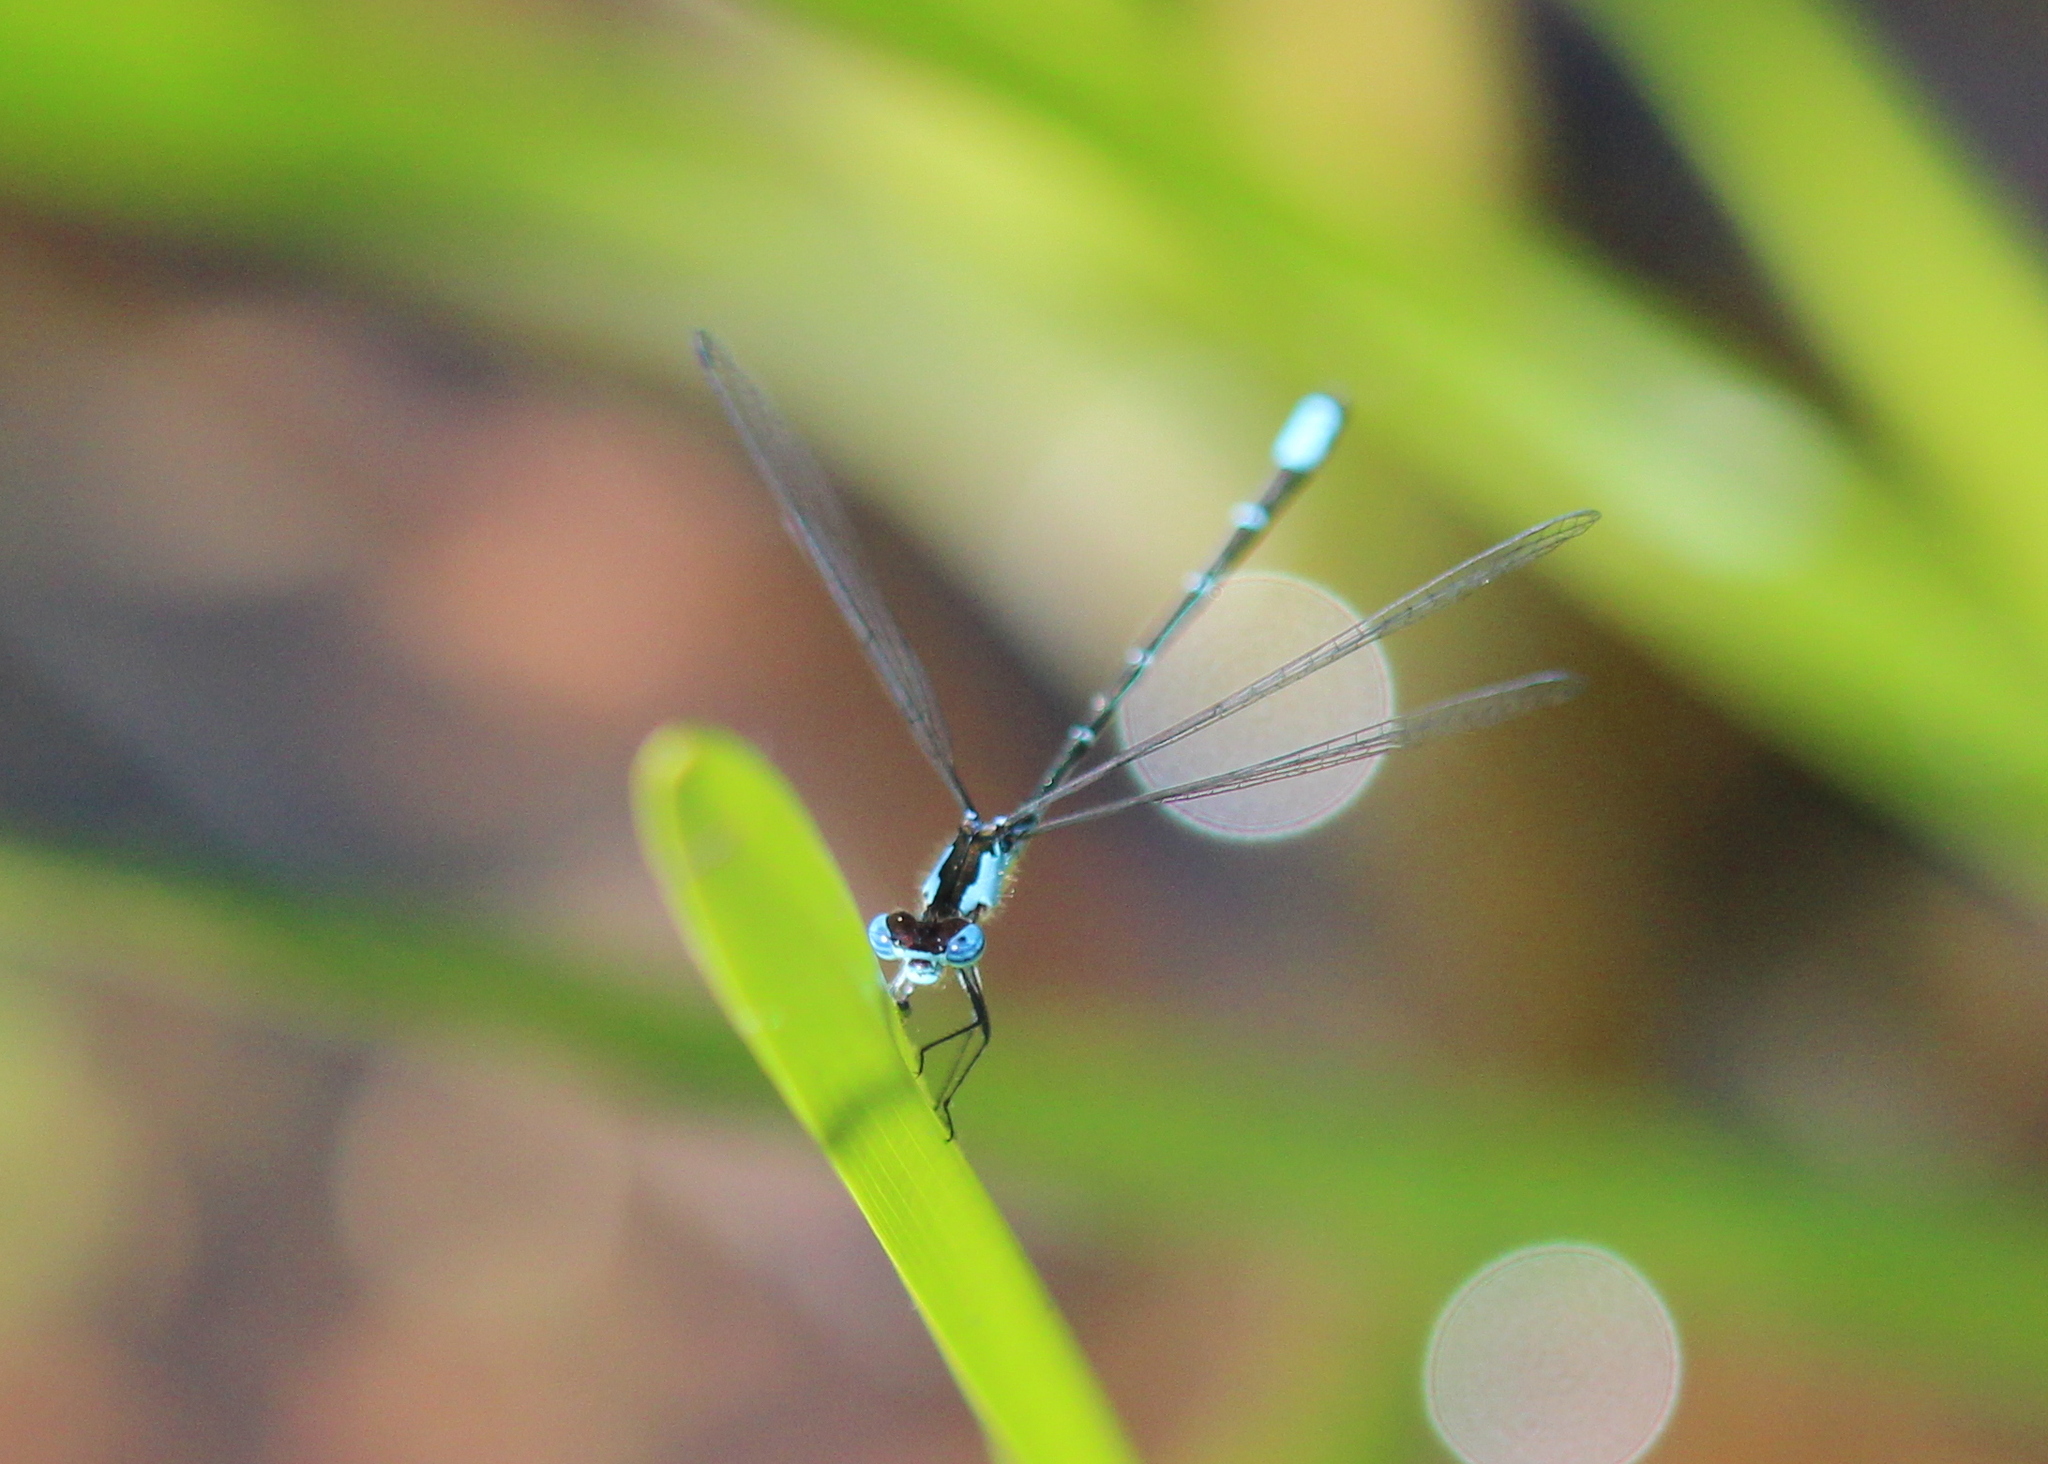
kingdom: Animalia
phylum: Arthropoda
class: Insecta
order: Odonata
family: Coenagrionidae
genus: Chromagrion
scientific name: Chromagrion conditum
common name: Aurora damsel
